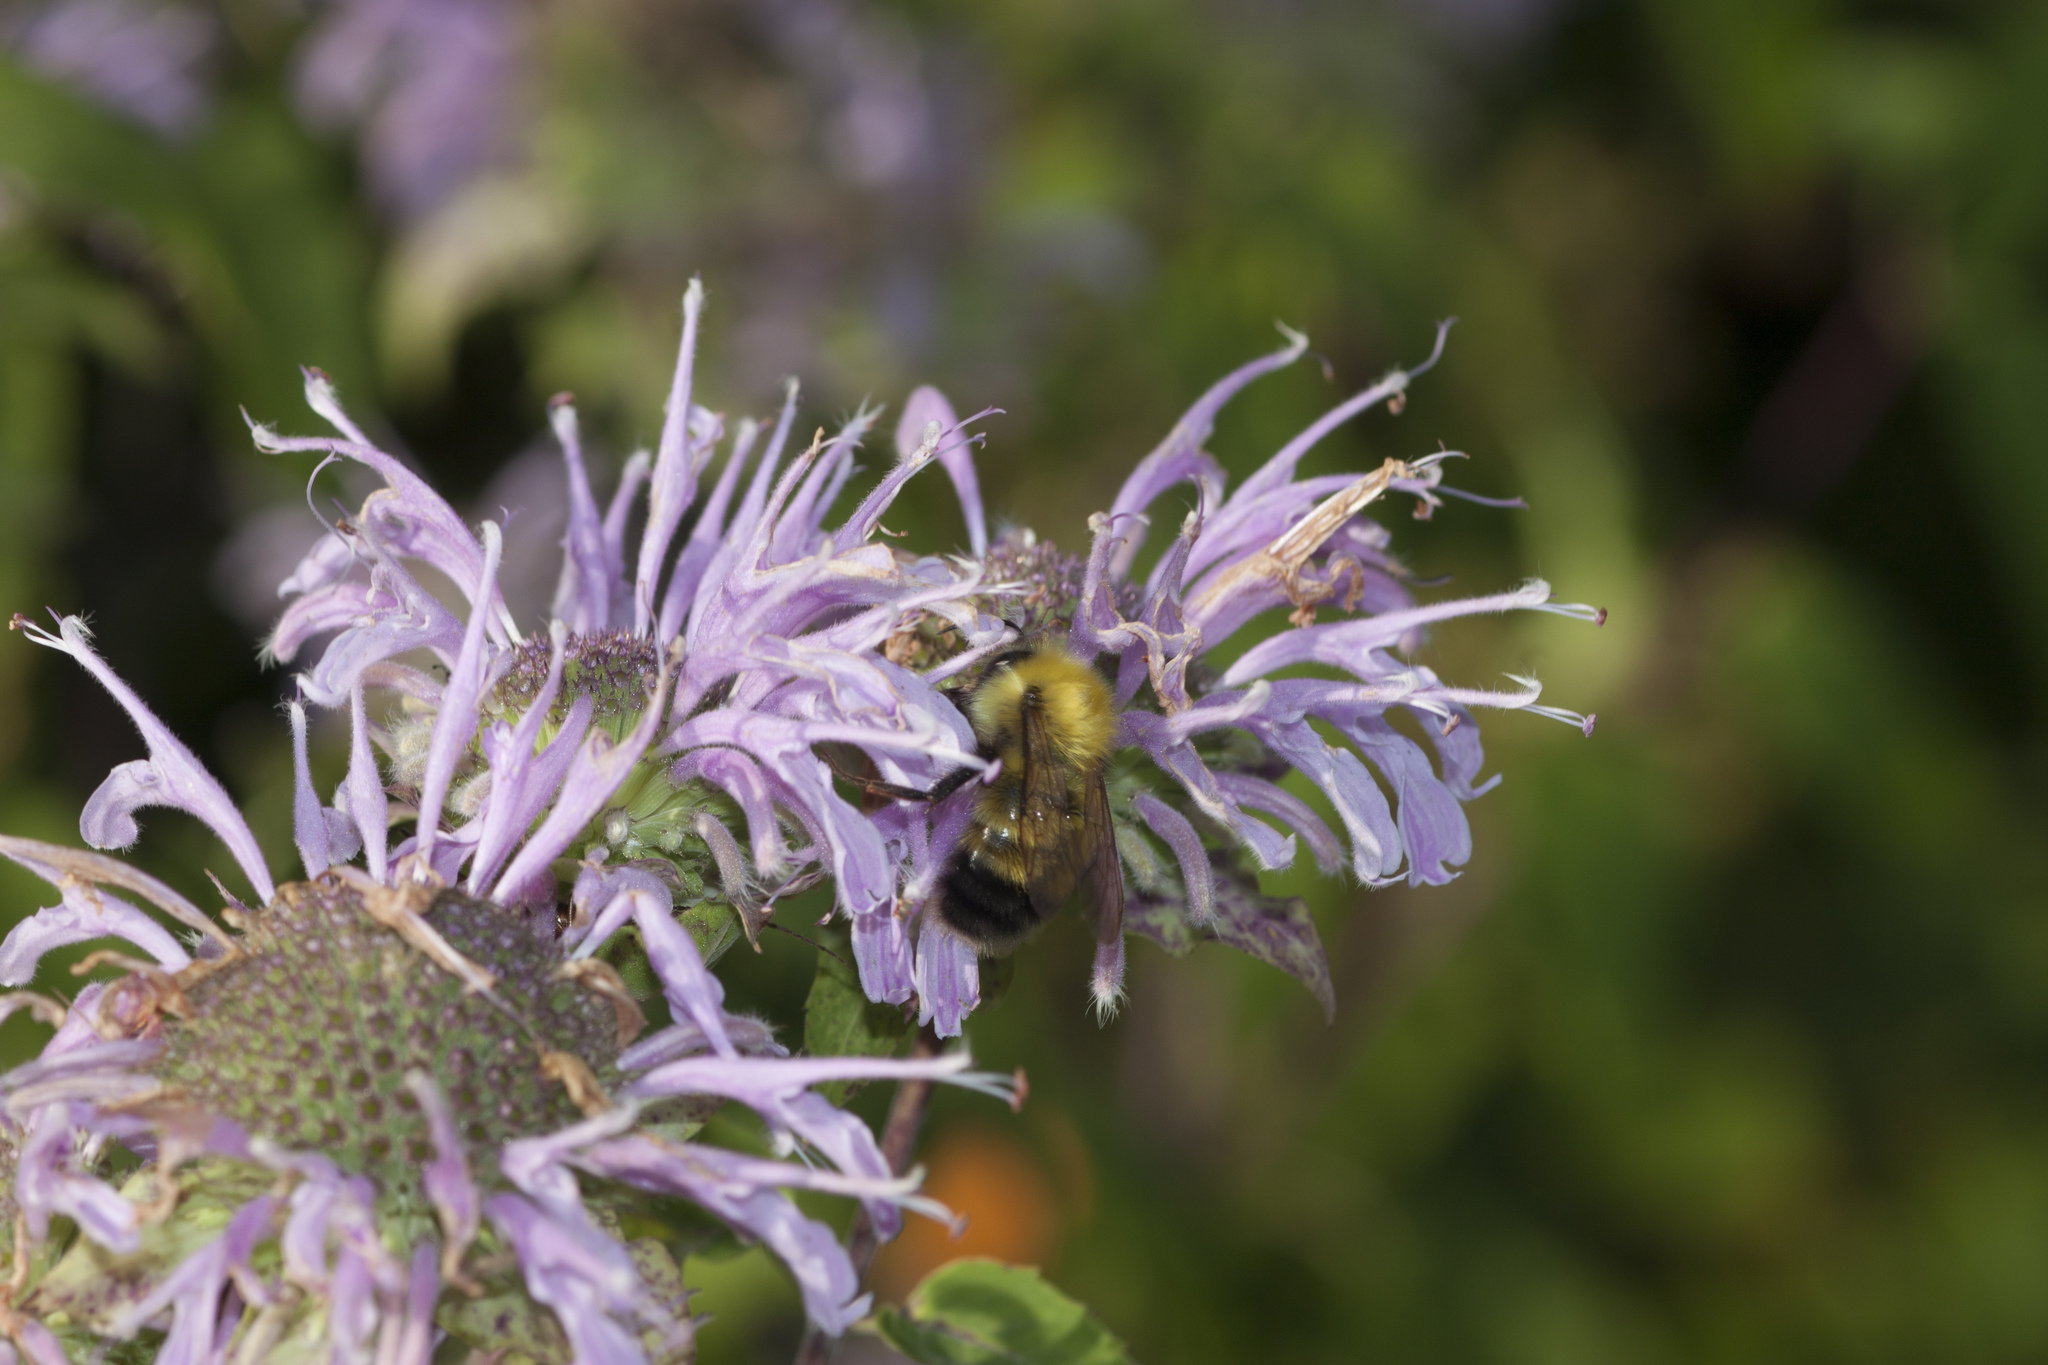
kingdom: Animalia
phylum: Arthropoda
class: Insecta
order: Hymenoptera
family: Apidae
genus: Bombus
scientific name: Bombus perplexus
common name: Confusing bumble bee
